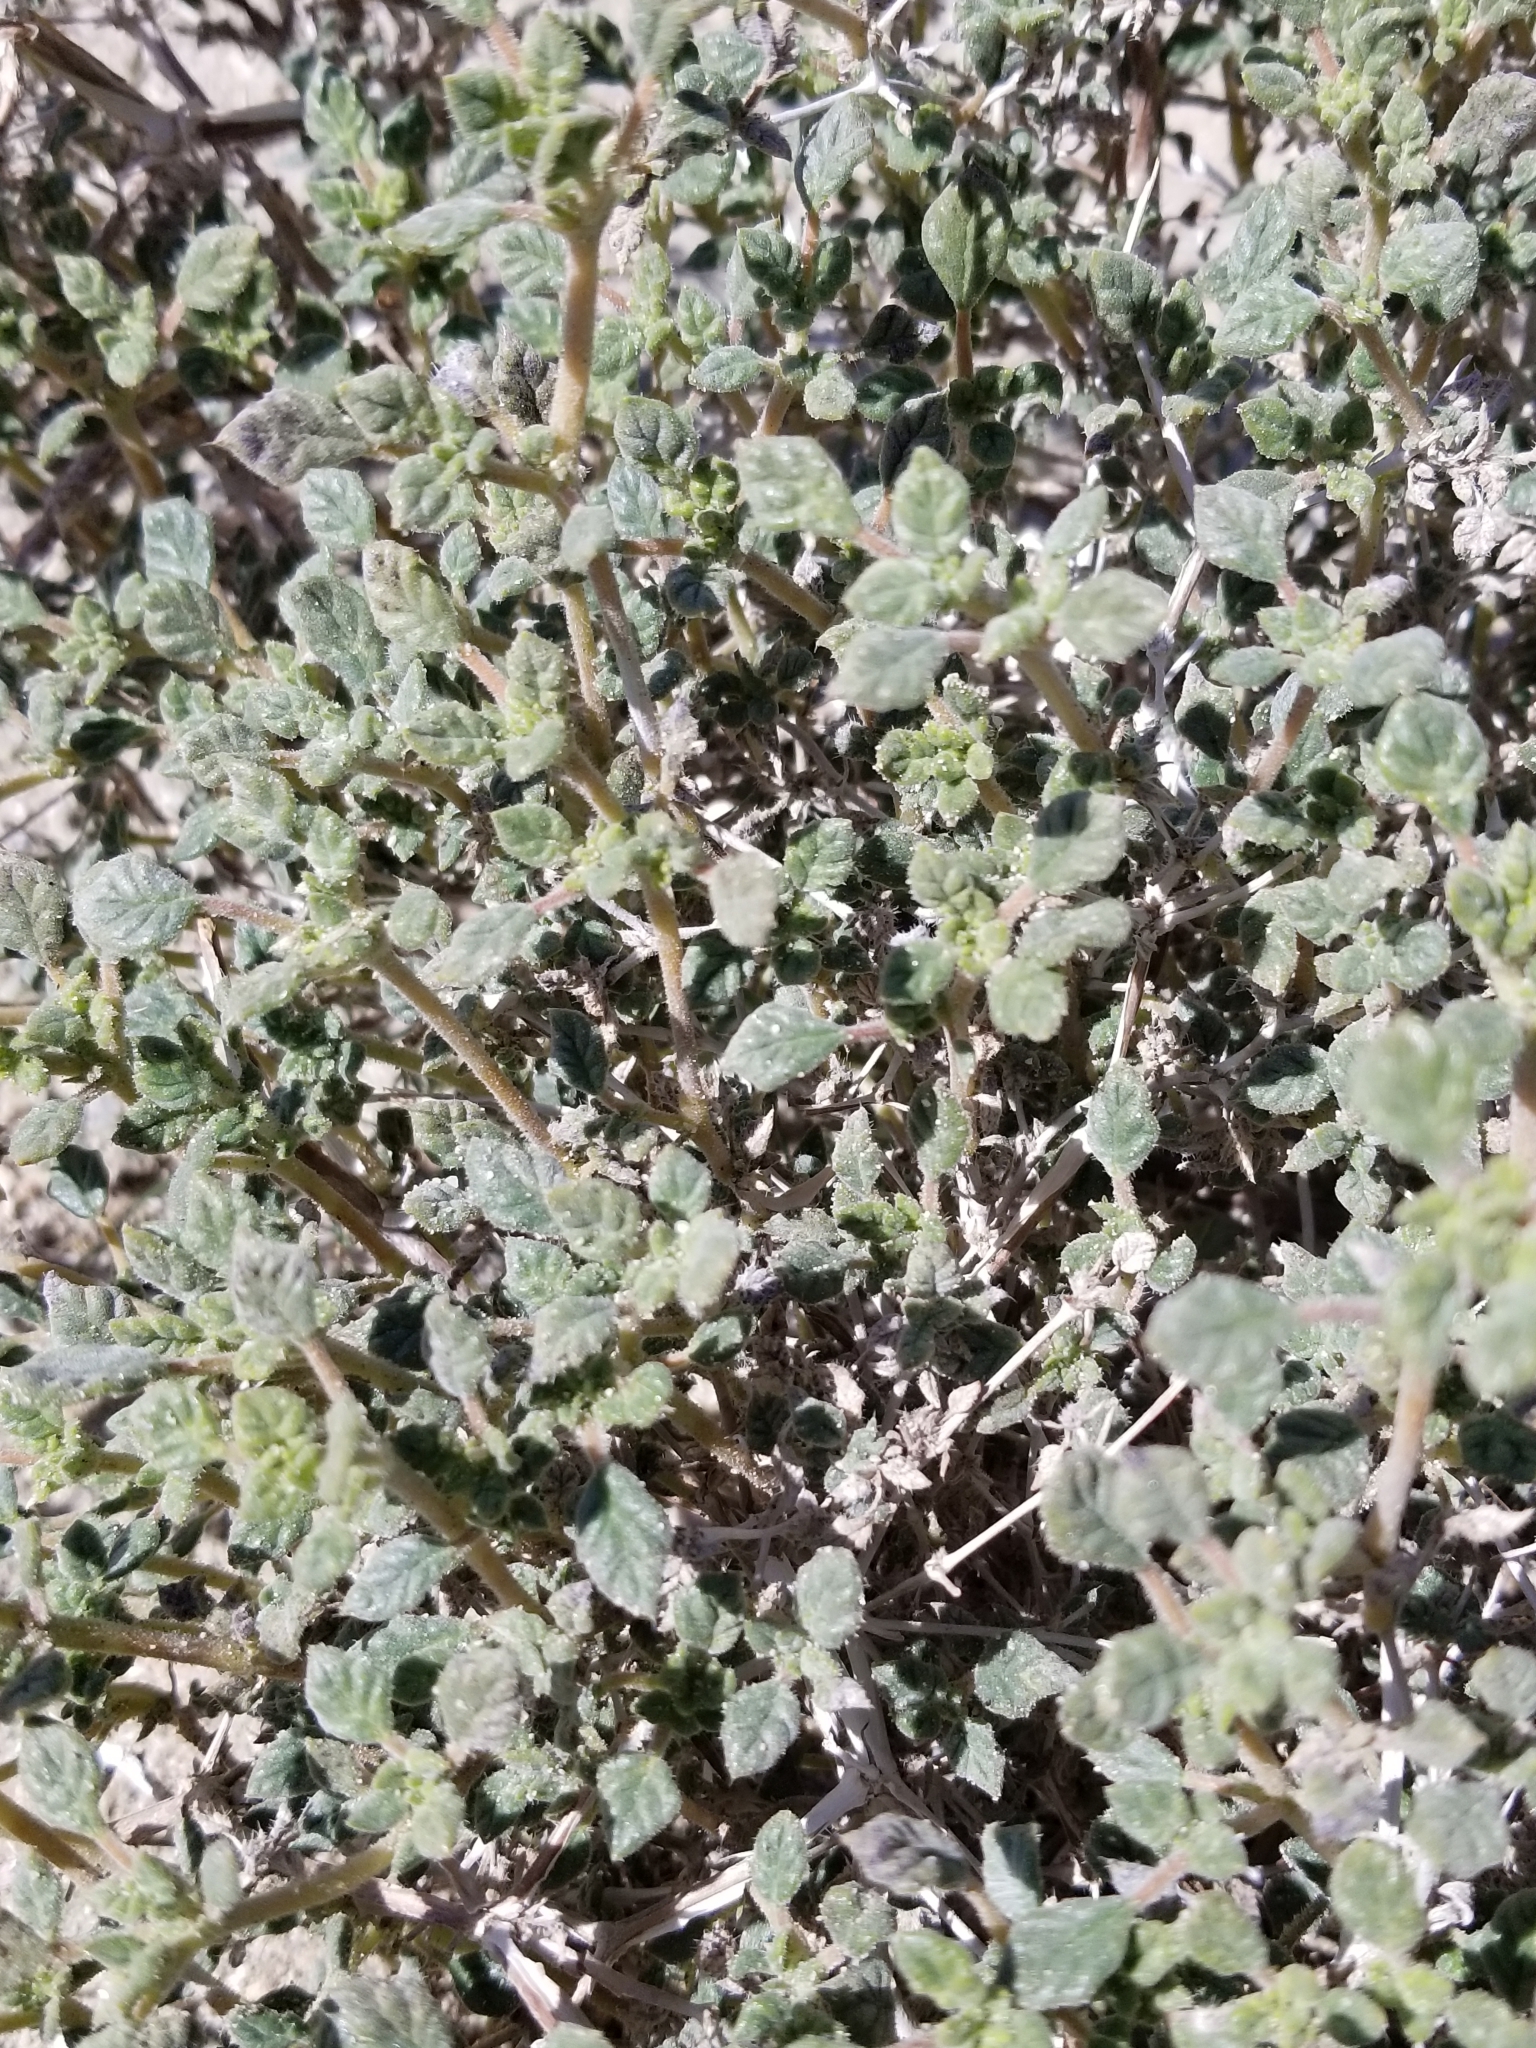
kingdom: Plantae
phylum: Tracheophyta
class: Magnoliopsida
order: Boraginales
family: Ehretiaceae
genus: Tiquilia
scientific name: Tiquilia palmeri
